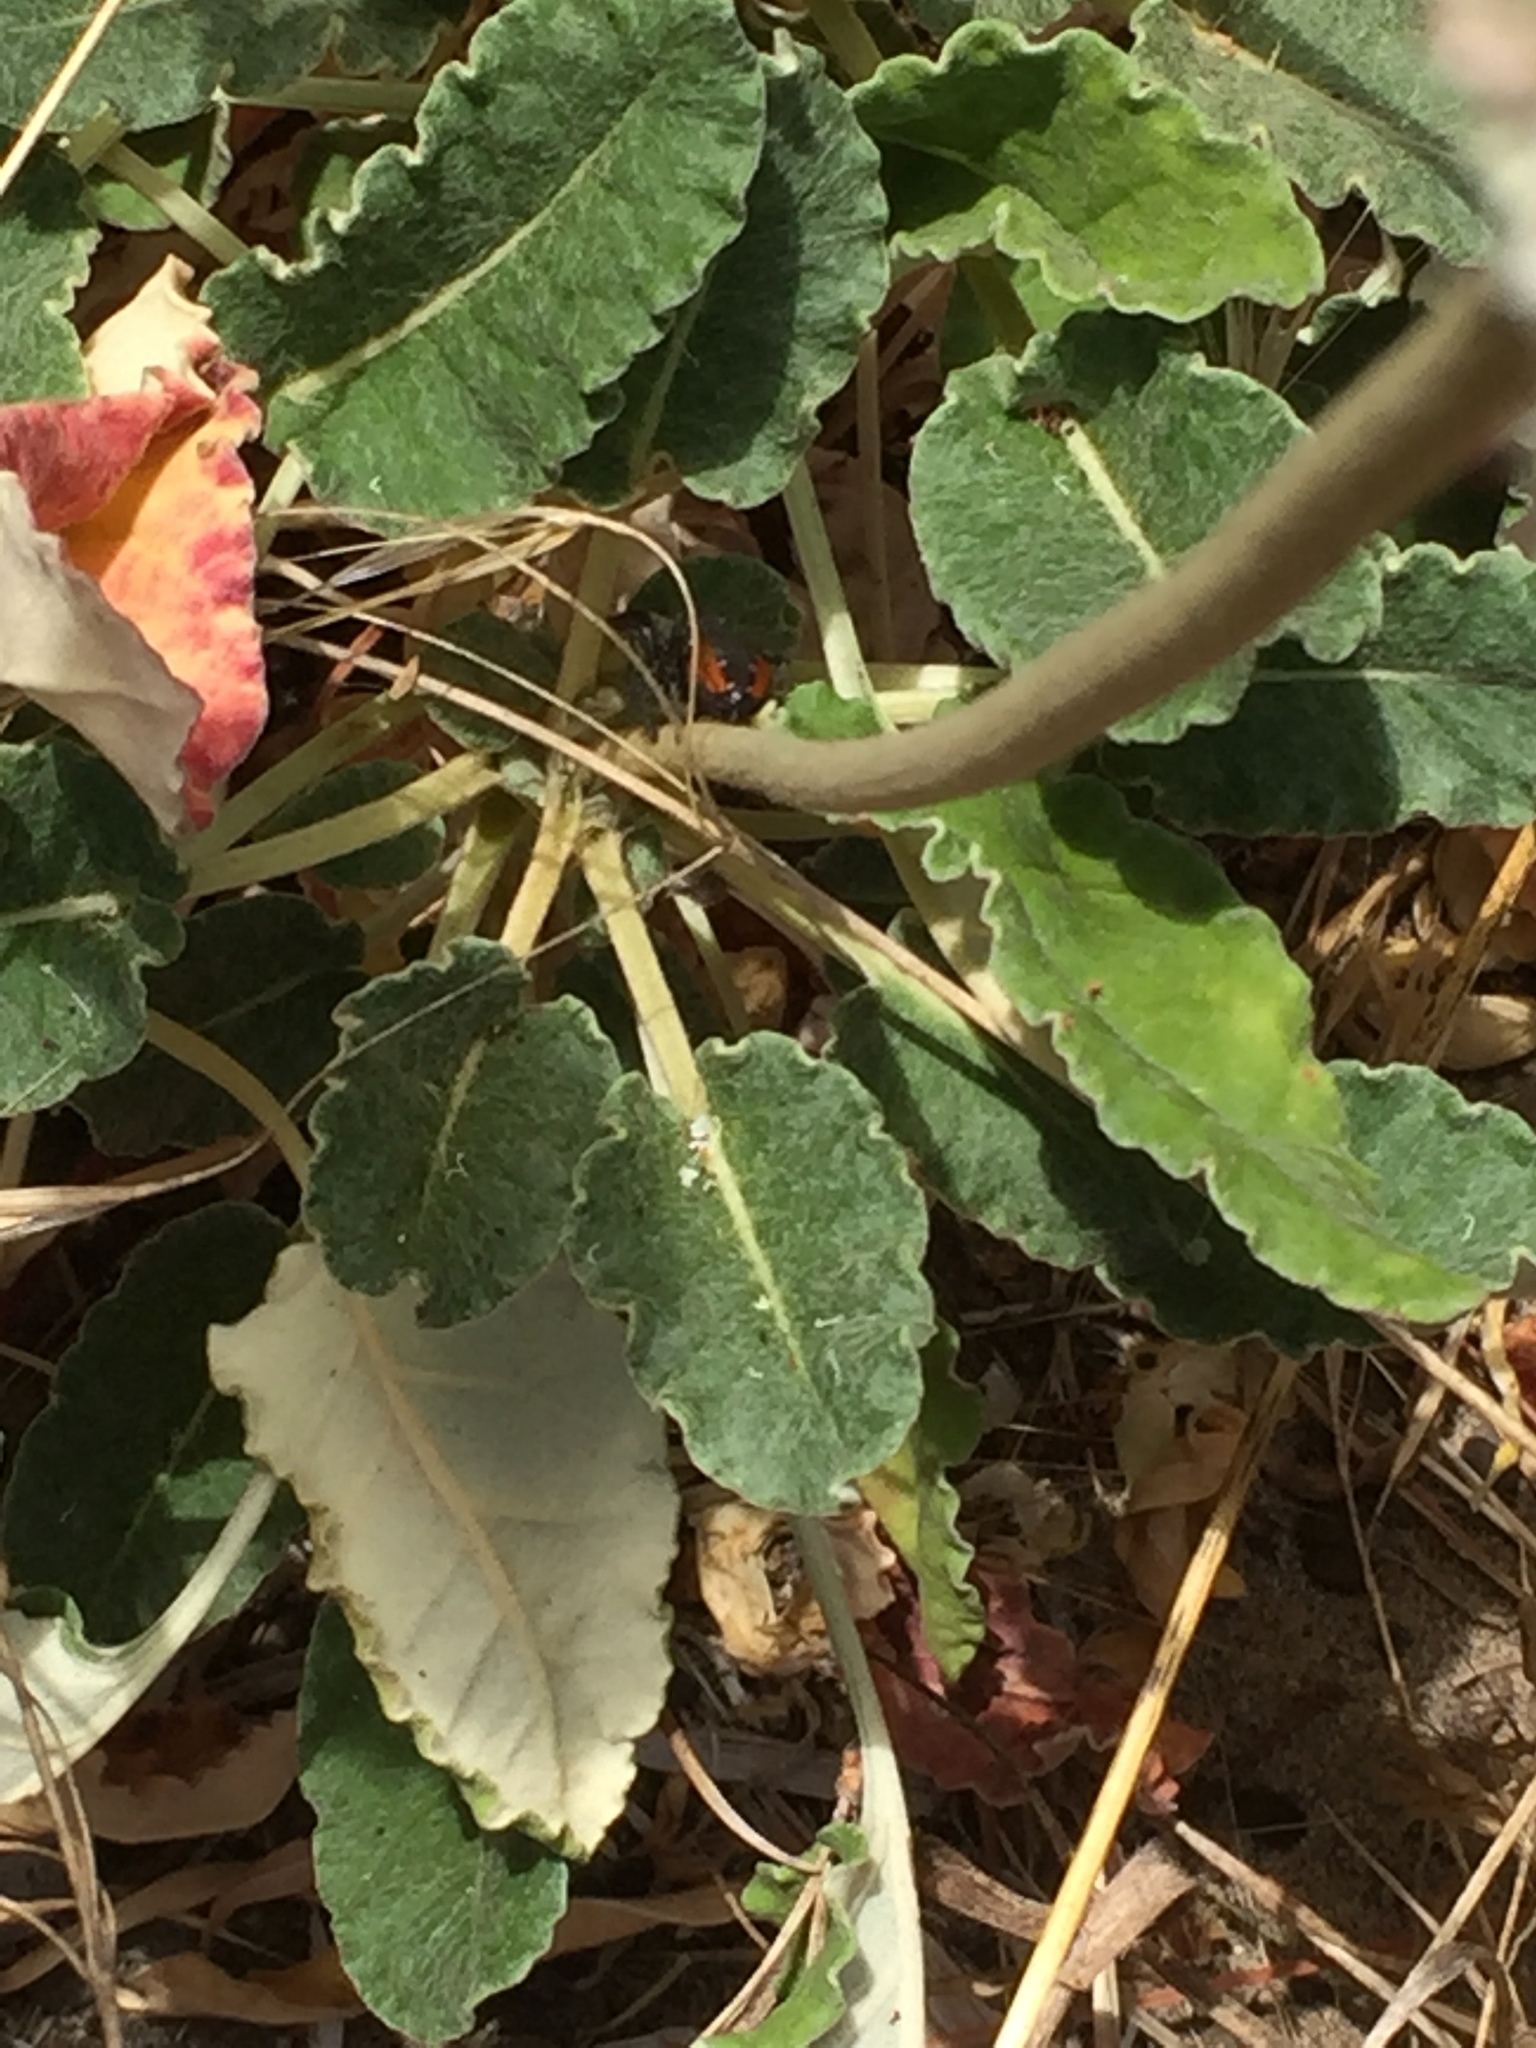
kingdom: Animalia
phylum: Arthropoda
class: Arachnida
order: Araneae
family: Salticidae
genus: Phidippus
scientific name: Phidippus johnsoni
